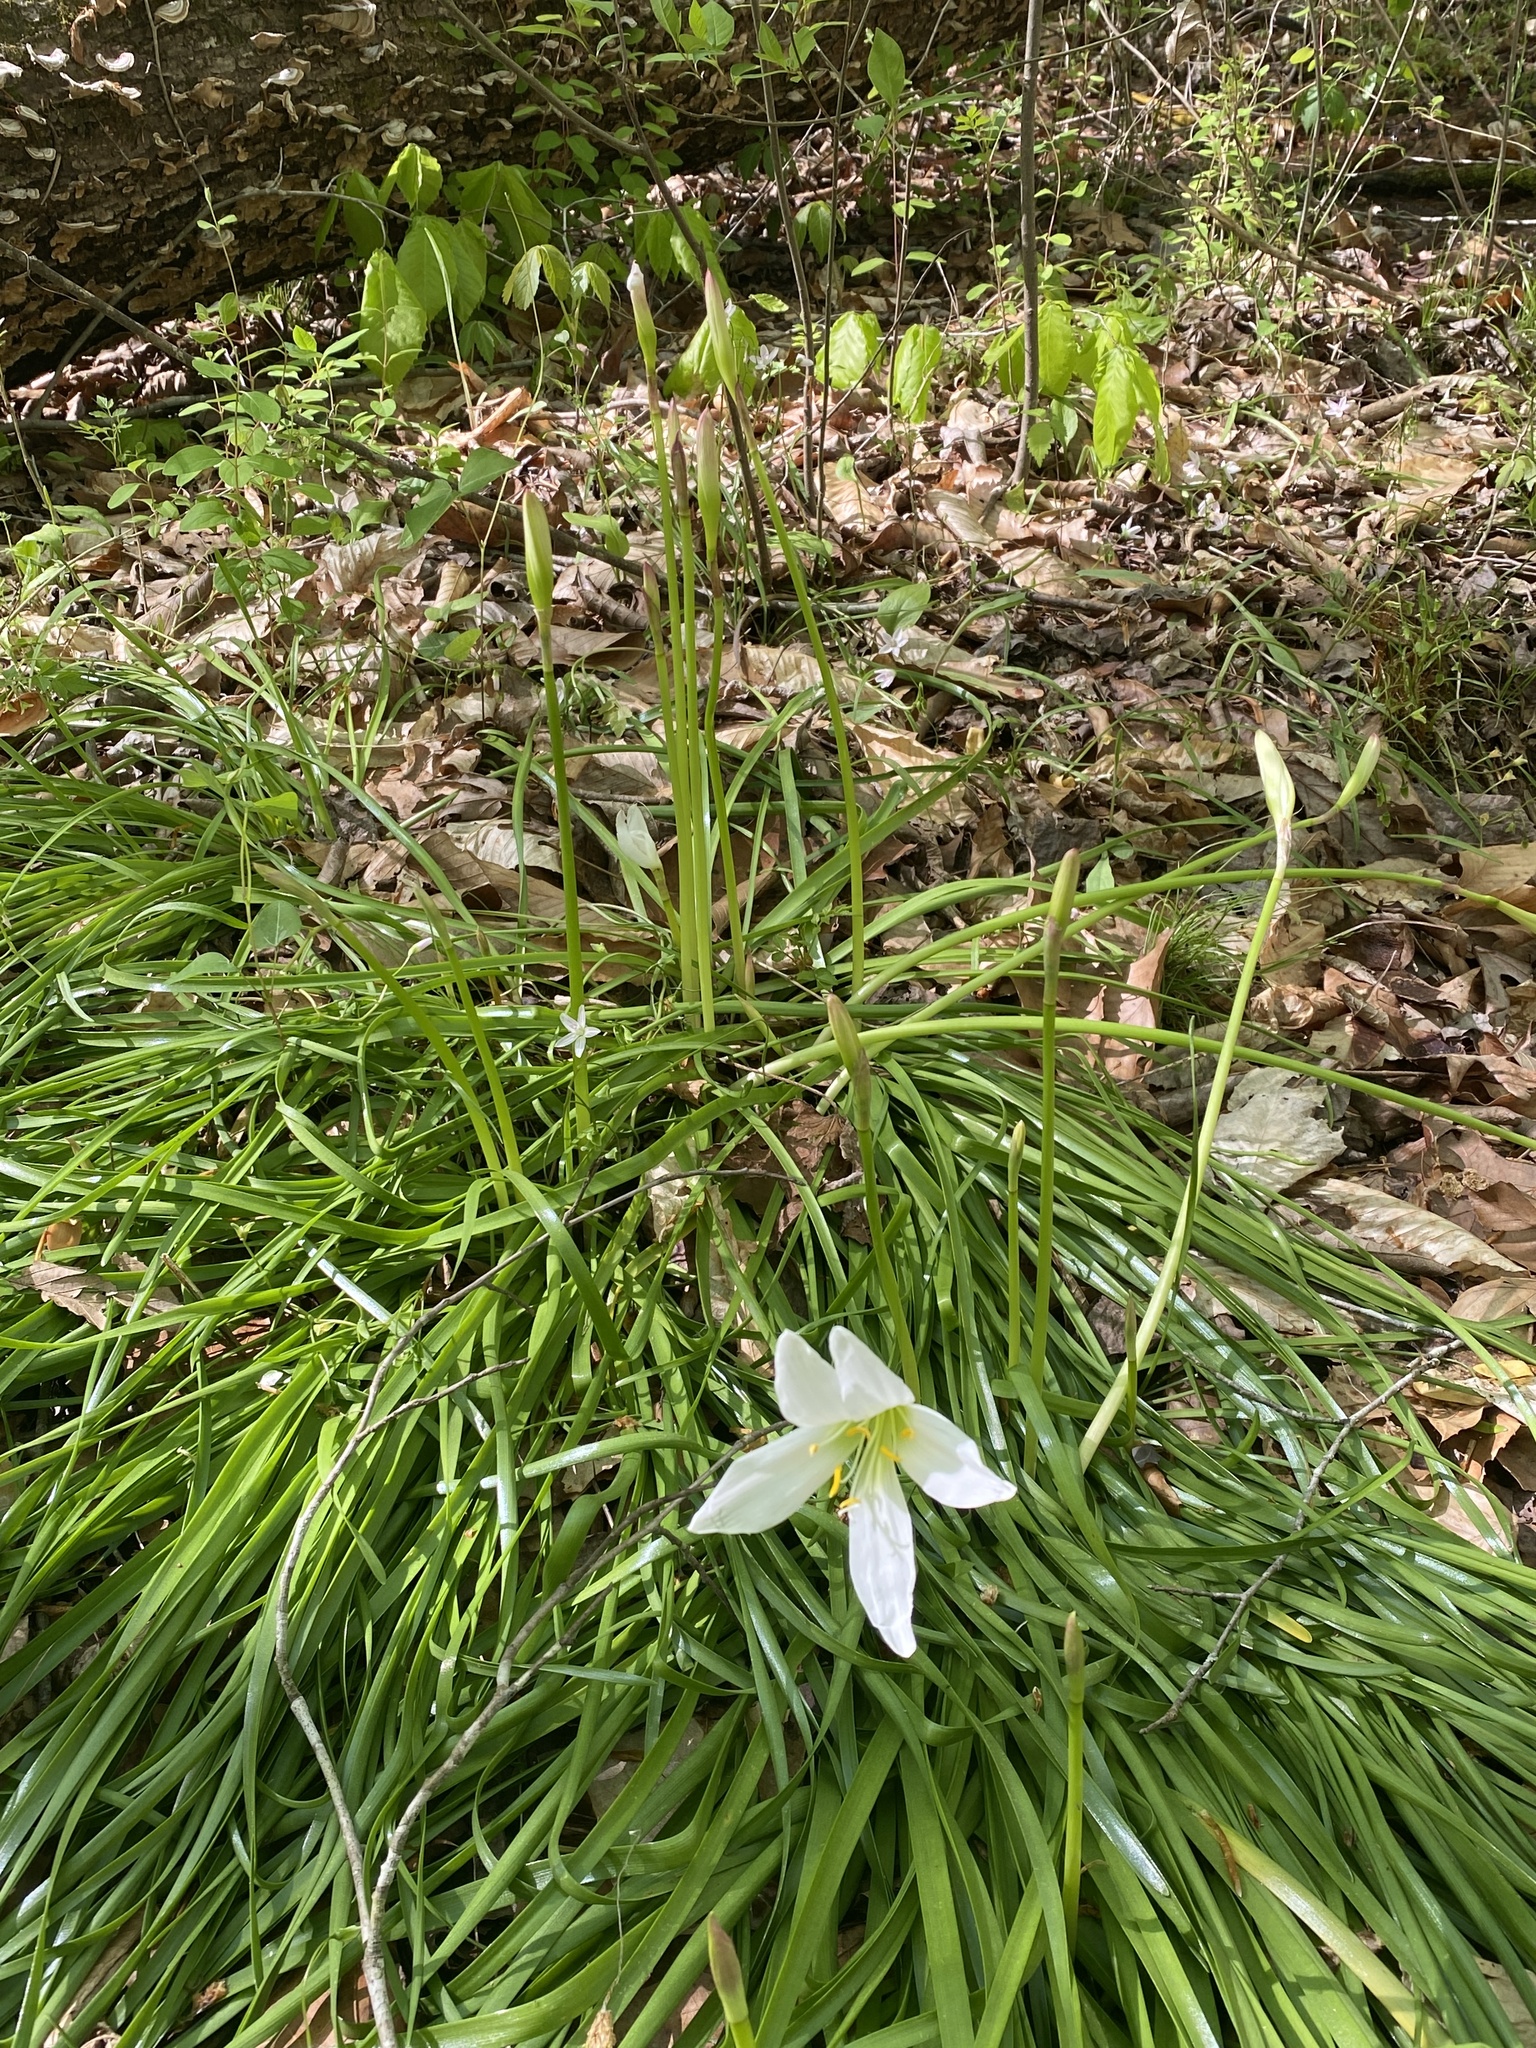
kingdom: Plantae
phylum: Tracheophyta
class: Liliopsida
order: Asparagales
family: Amaryllidaceae
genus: Zephyranthes
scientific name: Zephyranthes atamasco
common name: Atamasco lily
